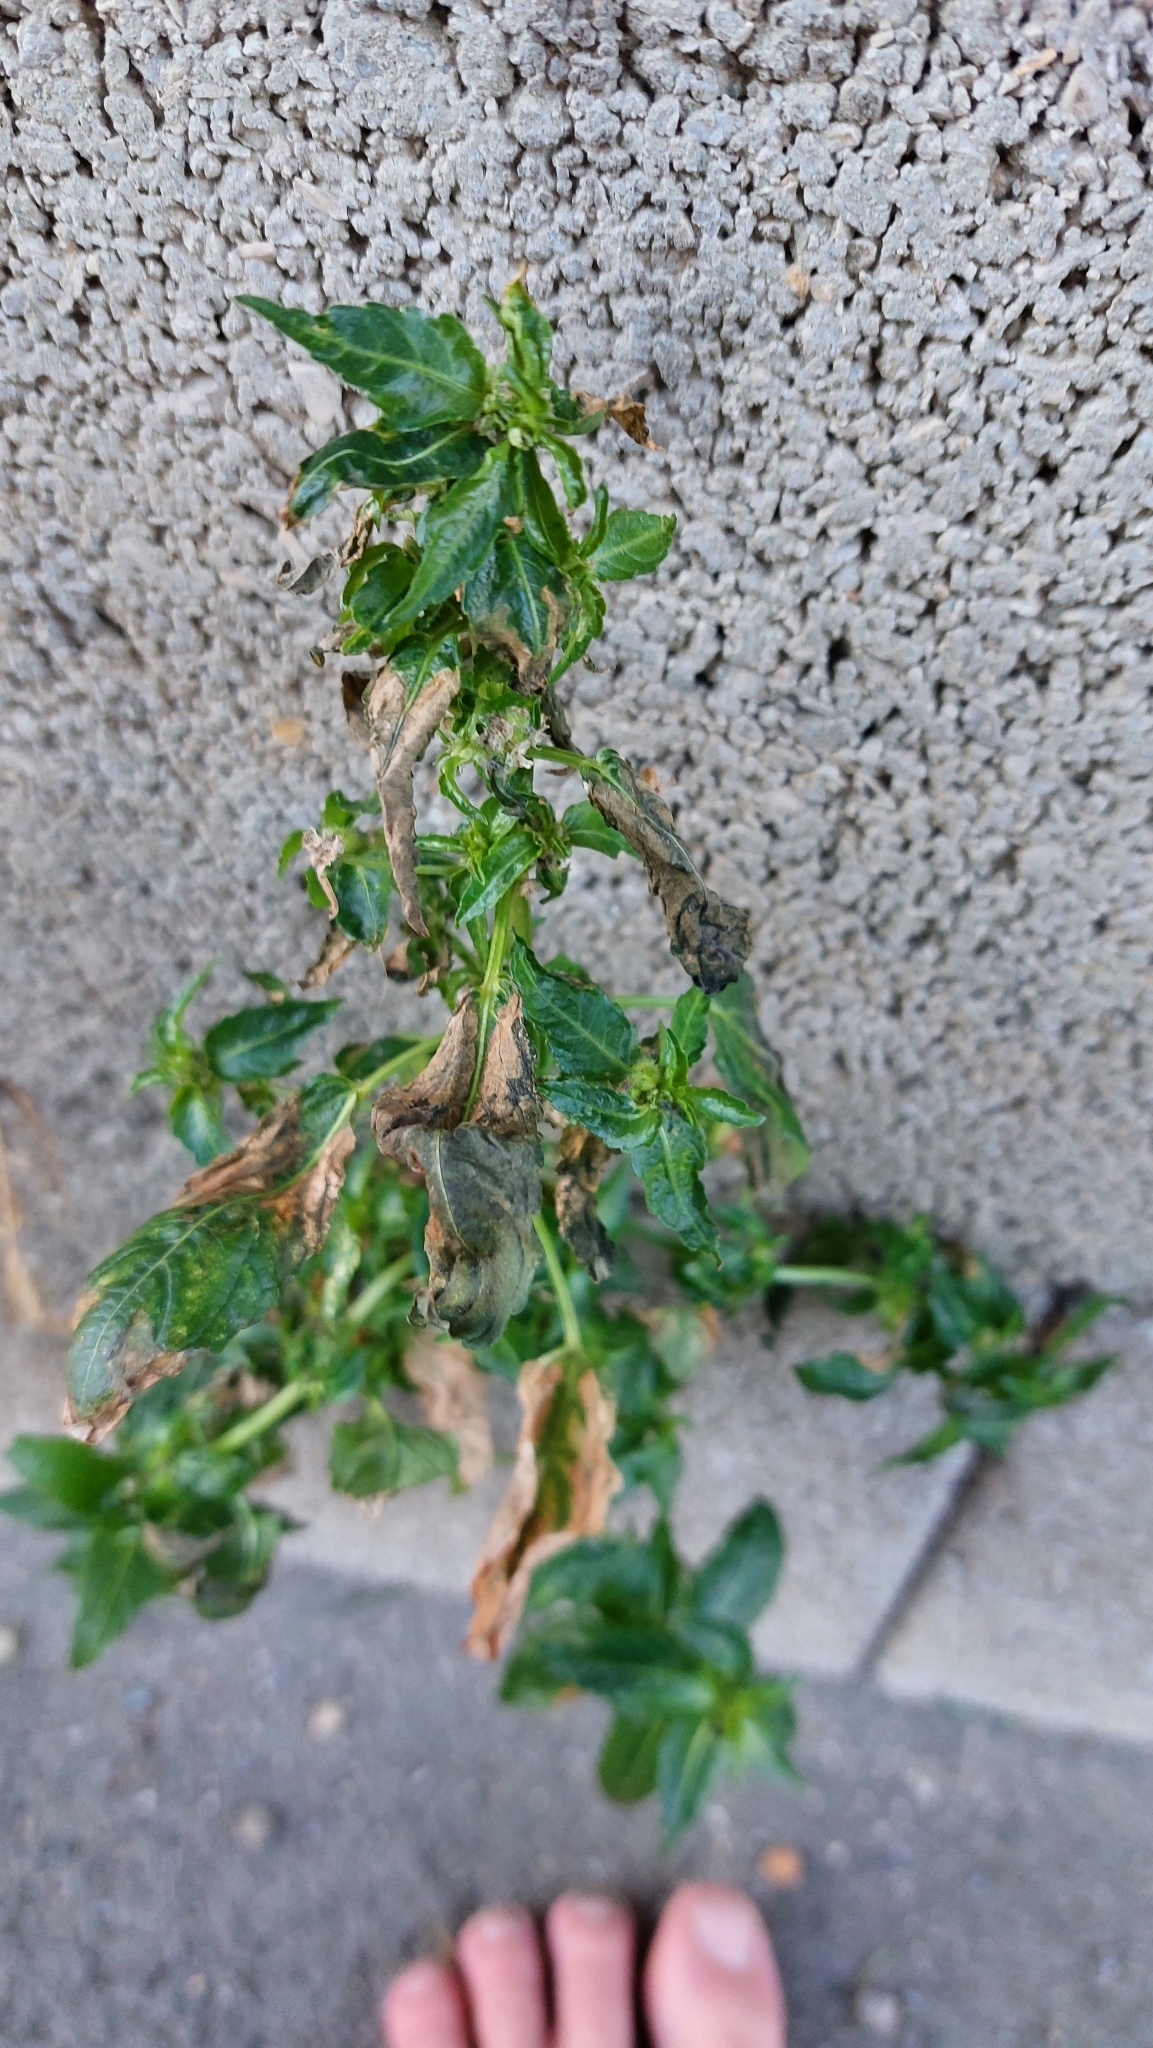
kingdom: Plantae
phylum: Tracheophyta
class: Magnoliopsida
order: Malpighiales
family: Euphorbiaceae
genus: Mercurialis
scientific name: Mercurialis annua
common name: Annual mercury
